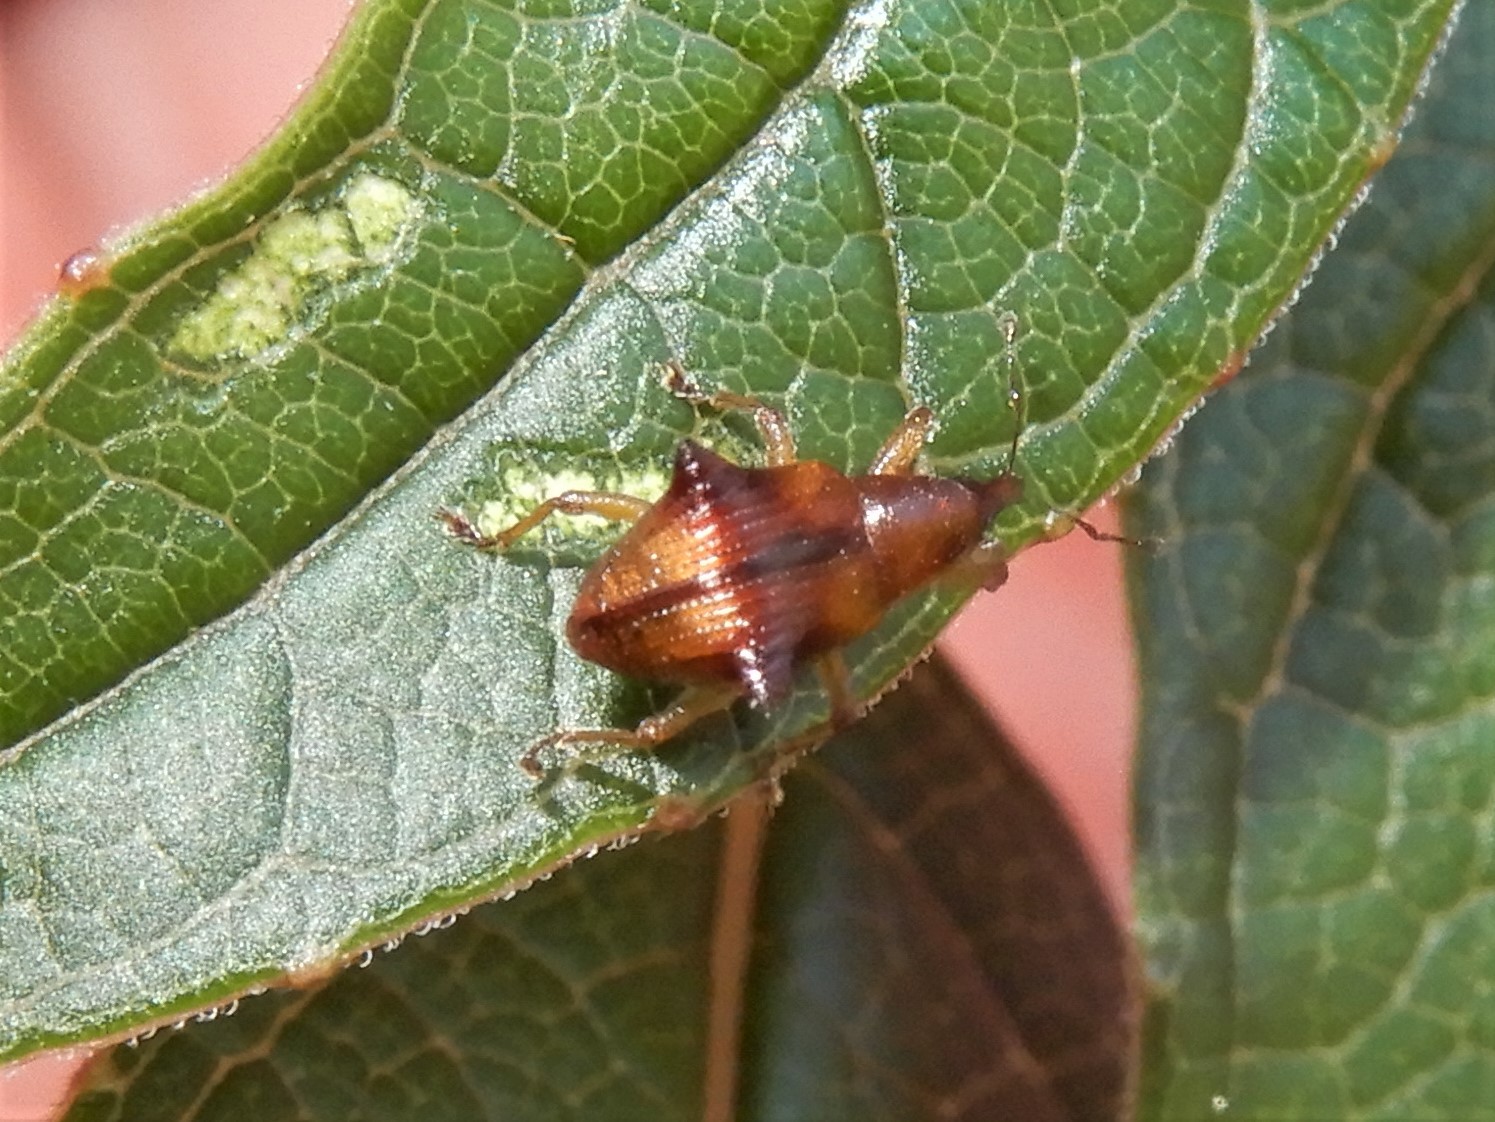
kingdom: Animalia
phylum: Arthropoda
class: Insecta
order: Coleoptera
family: Curculionidae
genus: Oropterus
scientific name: Oropterus coniger
